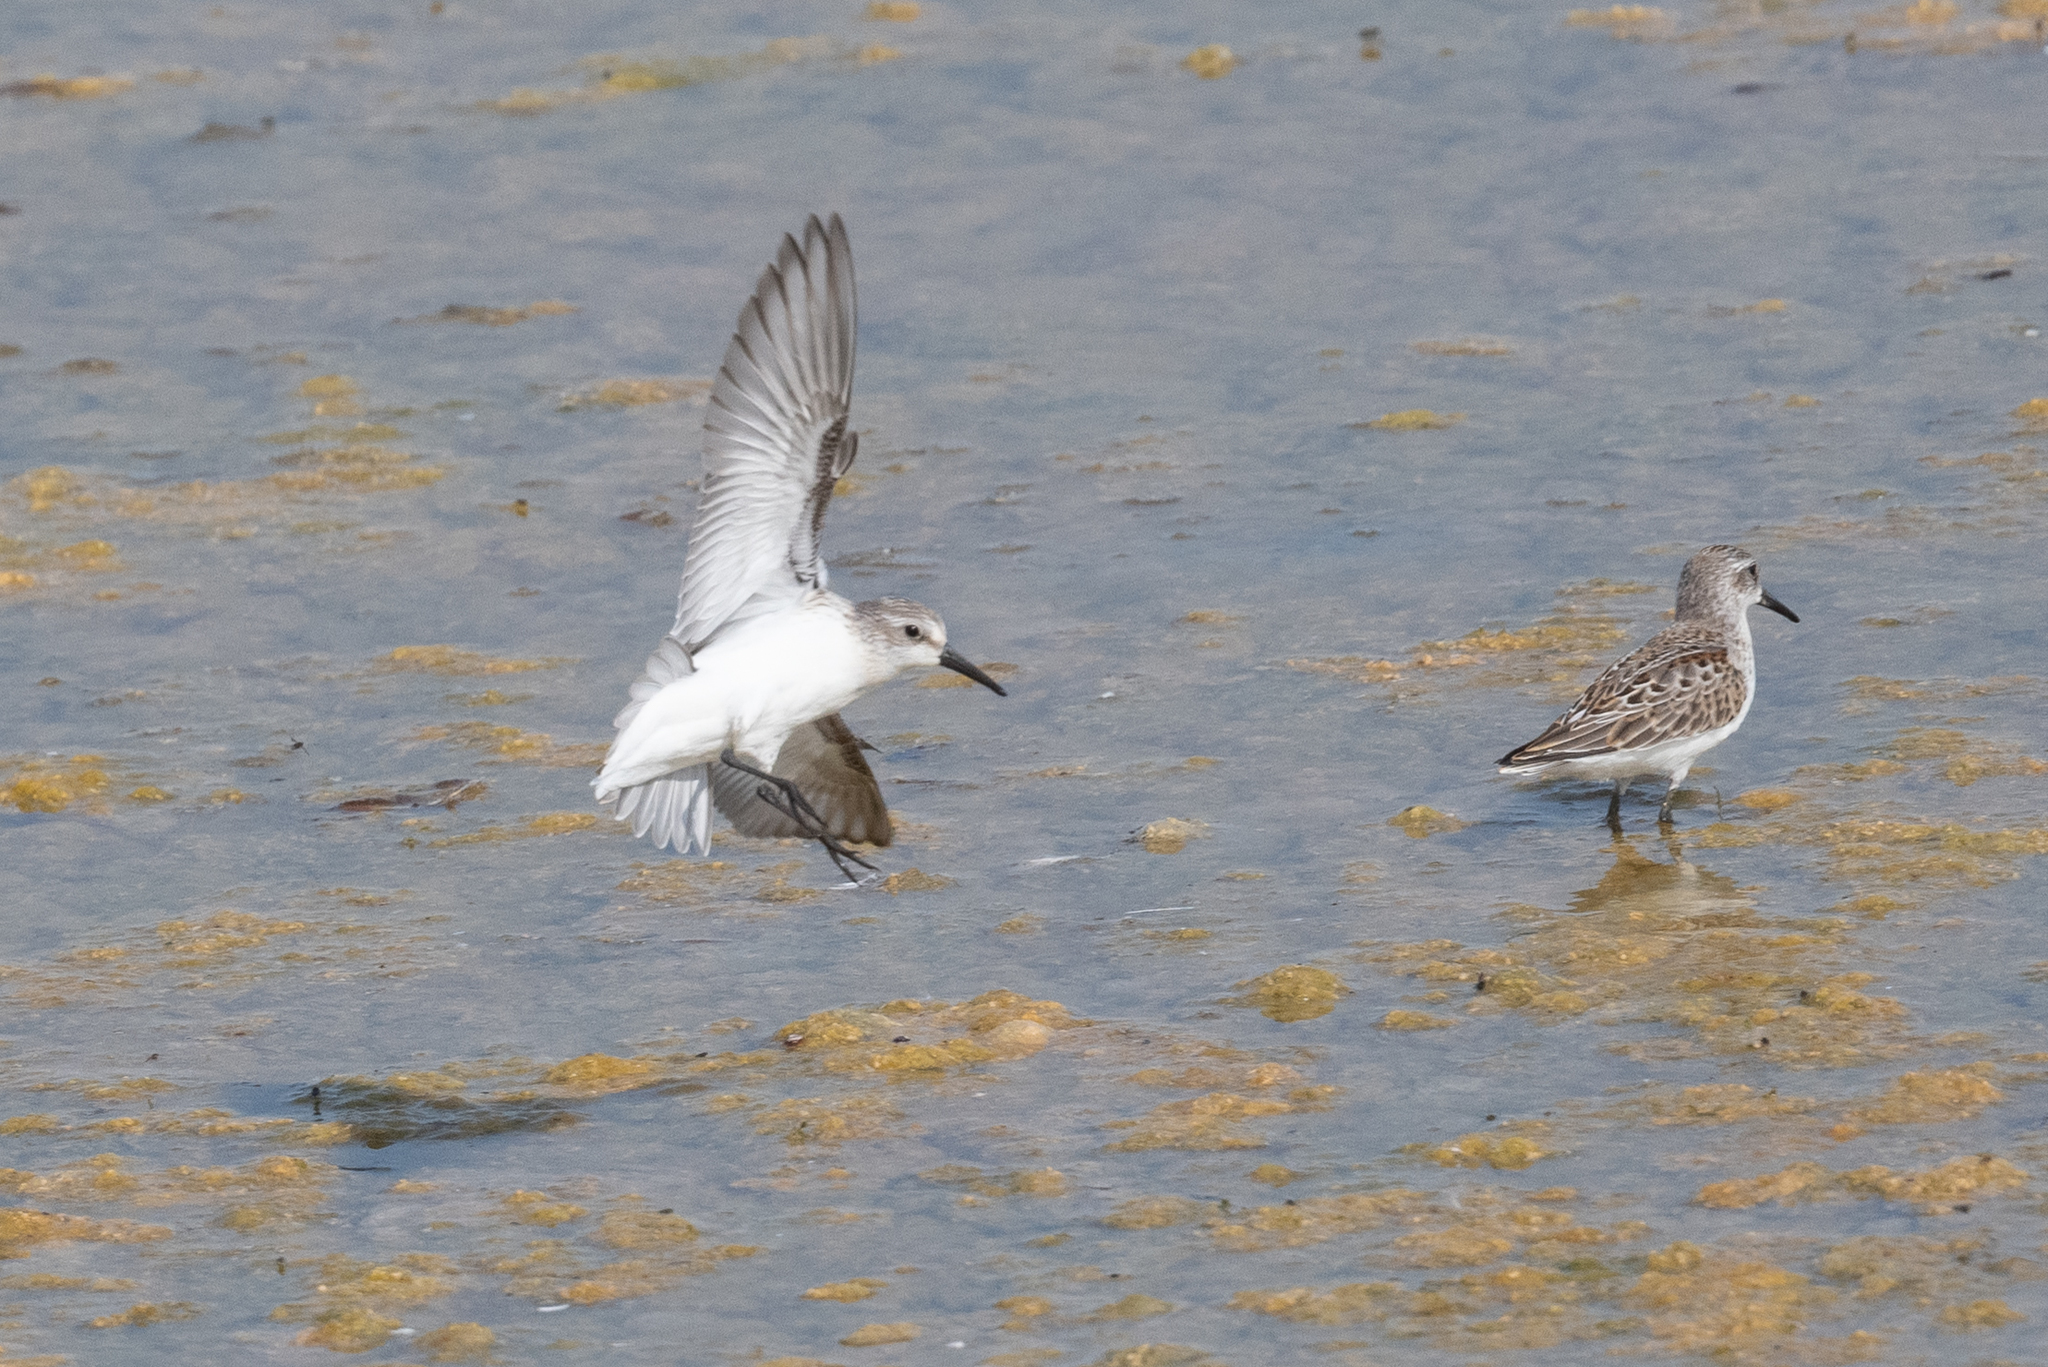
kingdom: Animalia
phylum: Chordata
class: Aves
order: Charadriiformes
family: Scolopacidae
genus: Calidris
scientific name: Calidris mauri
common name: Western sandpiper
